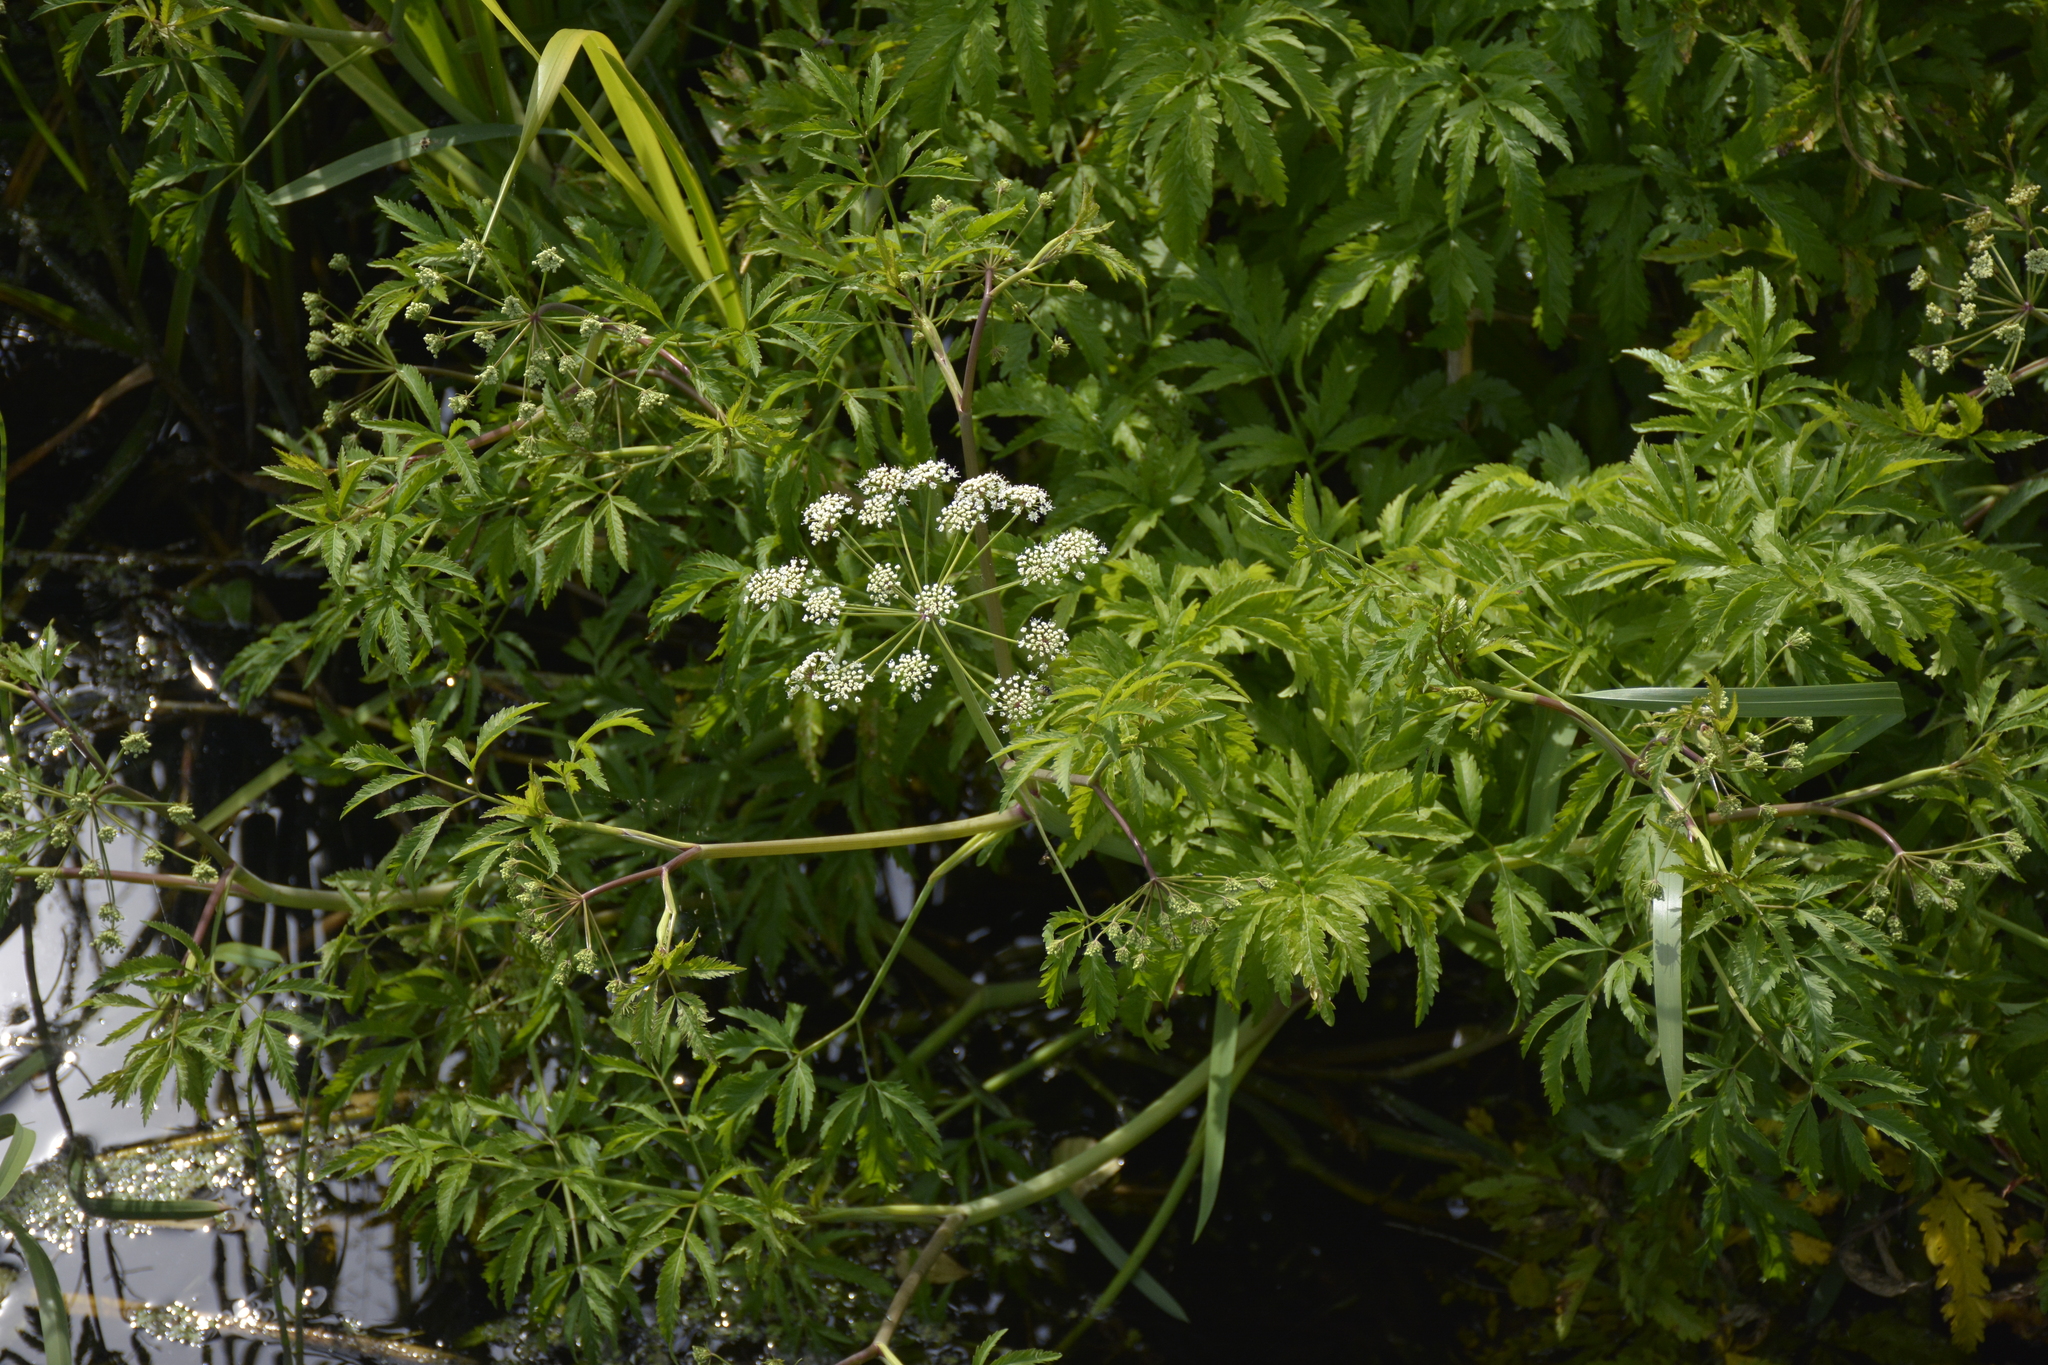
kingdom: Plantae
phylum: Tracheophyta
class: Magnoliopsida
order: Apiales
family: Apiaceae
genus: Cicuta
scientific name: Cicuta virosa
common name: Cowbane
